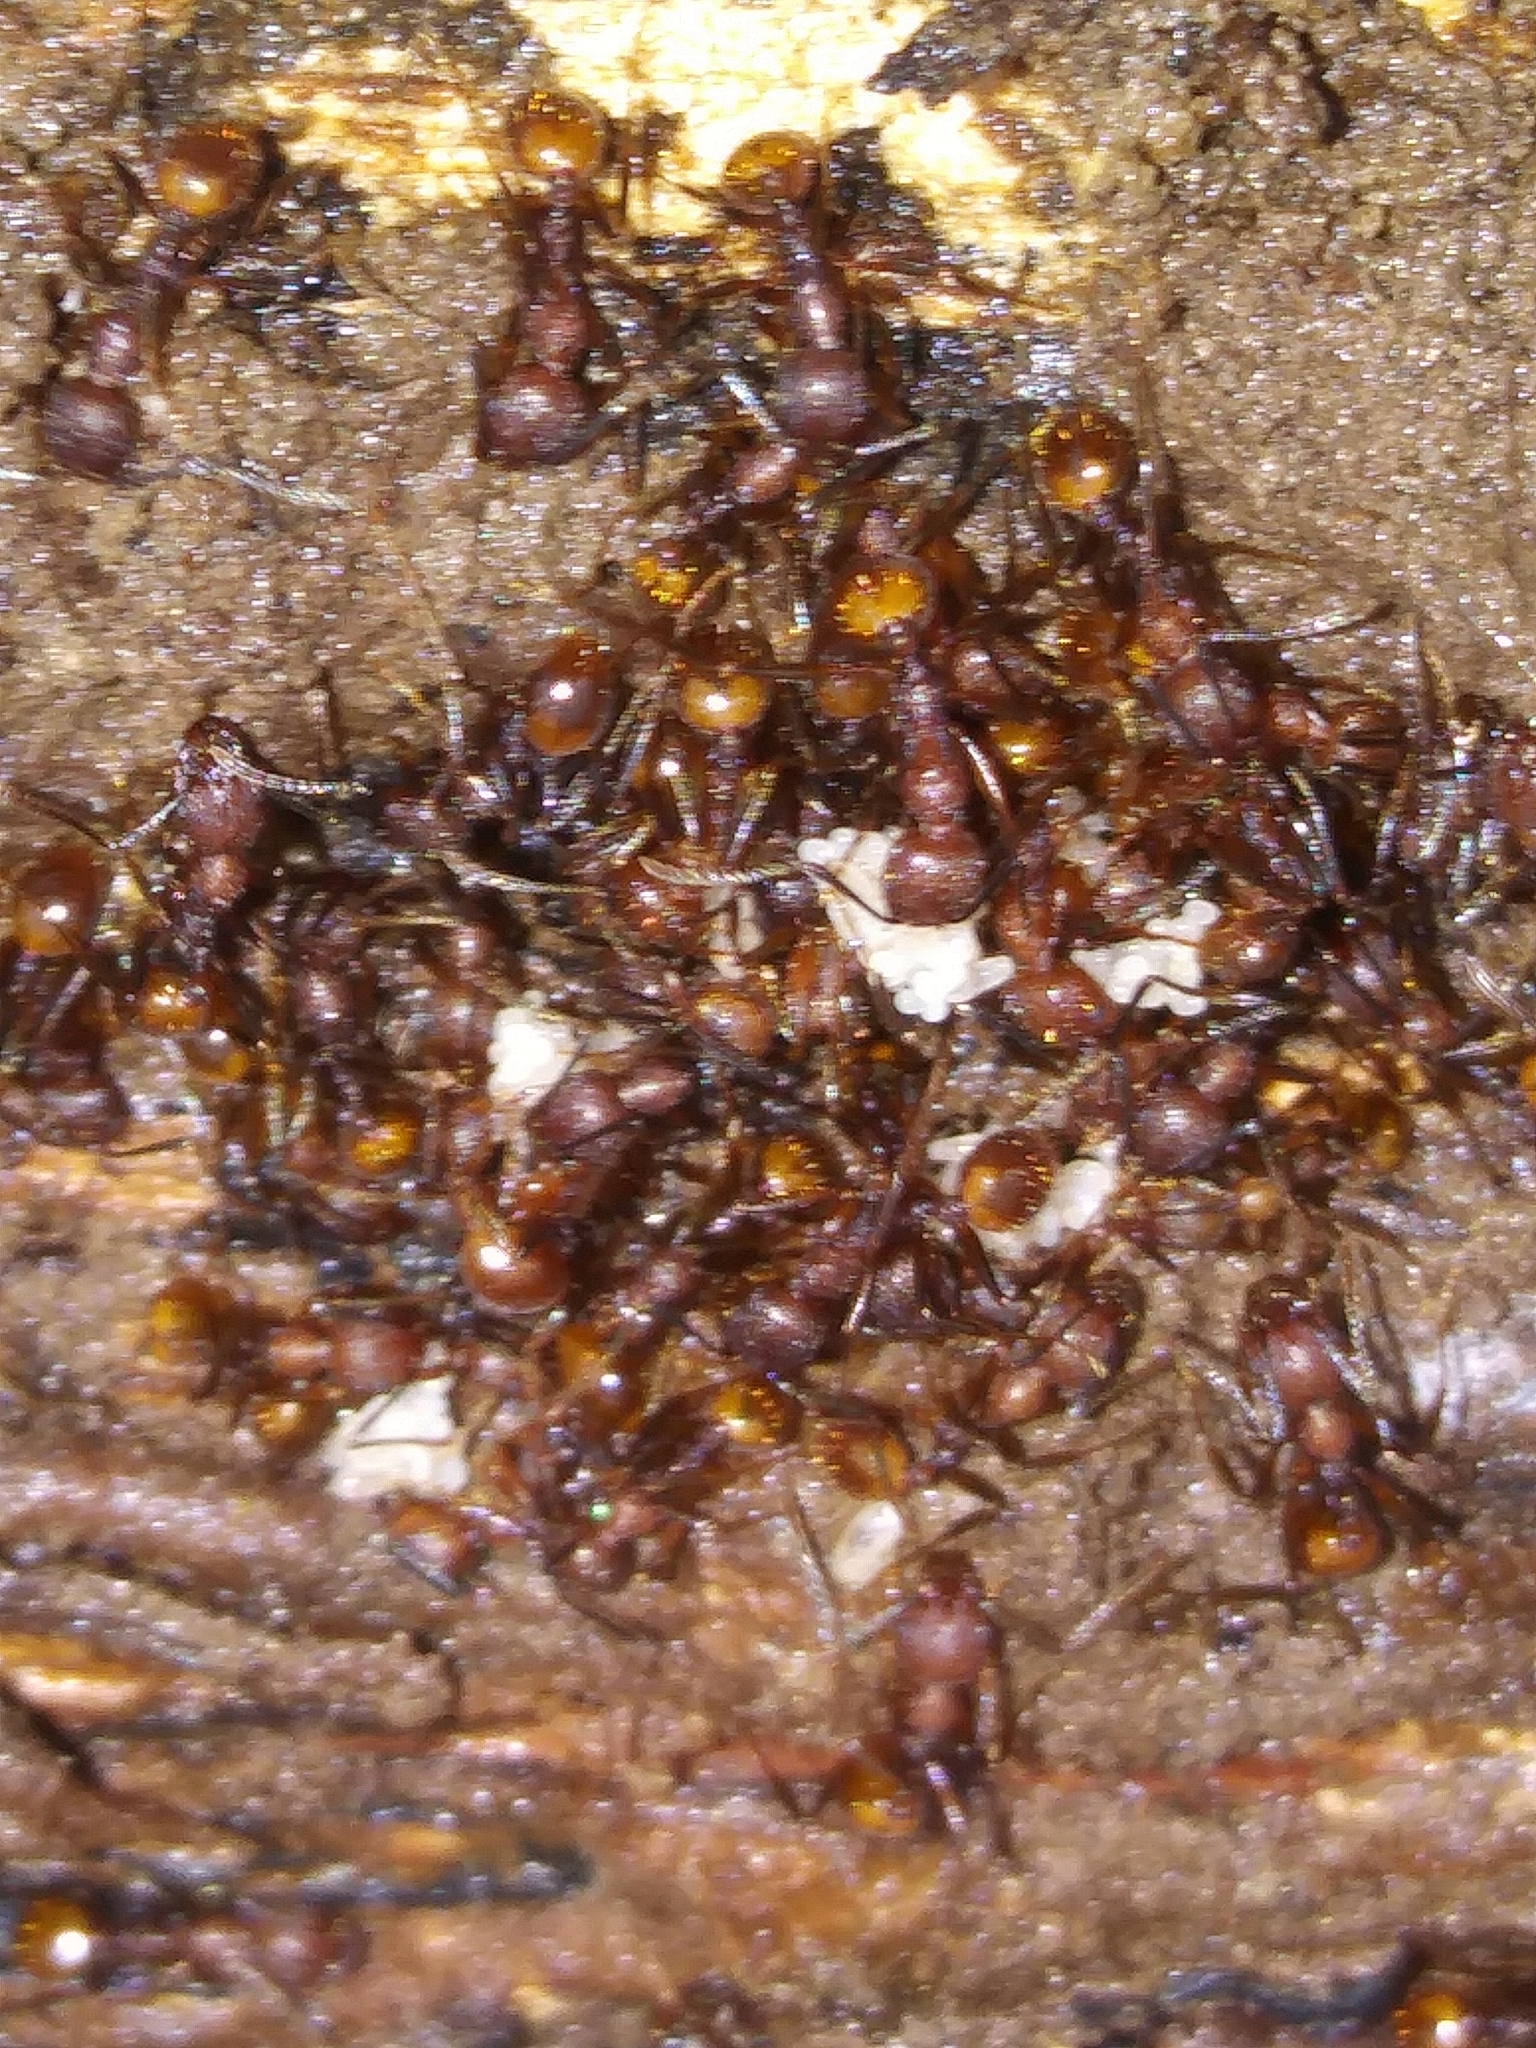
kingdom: Animalia
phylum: Arthropoda
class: Insecta
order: Hymenoptera
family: Formicidae
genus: Aphaenogaster
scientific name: Aphaenogaster fulva
